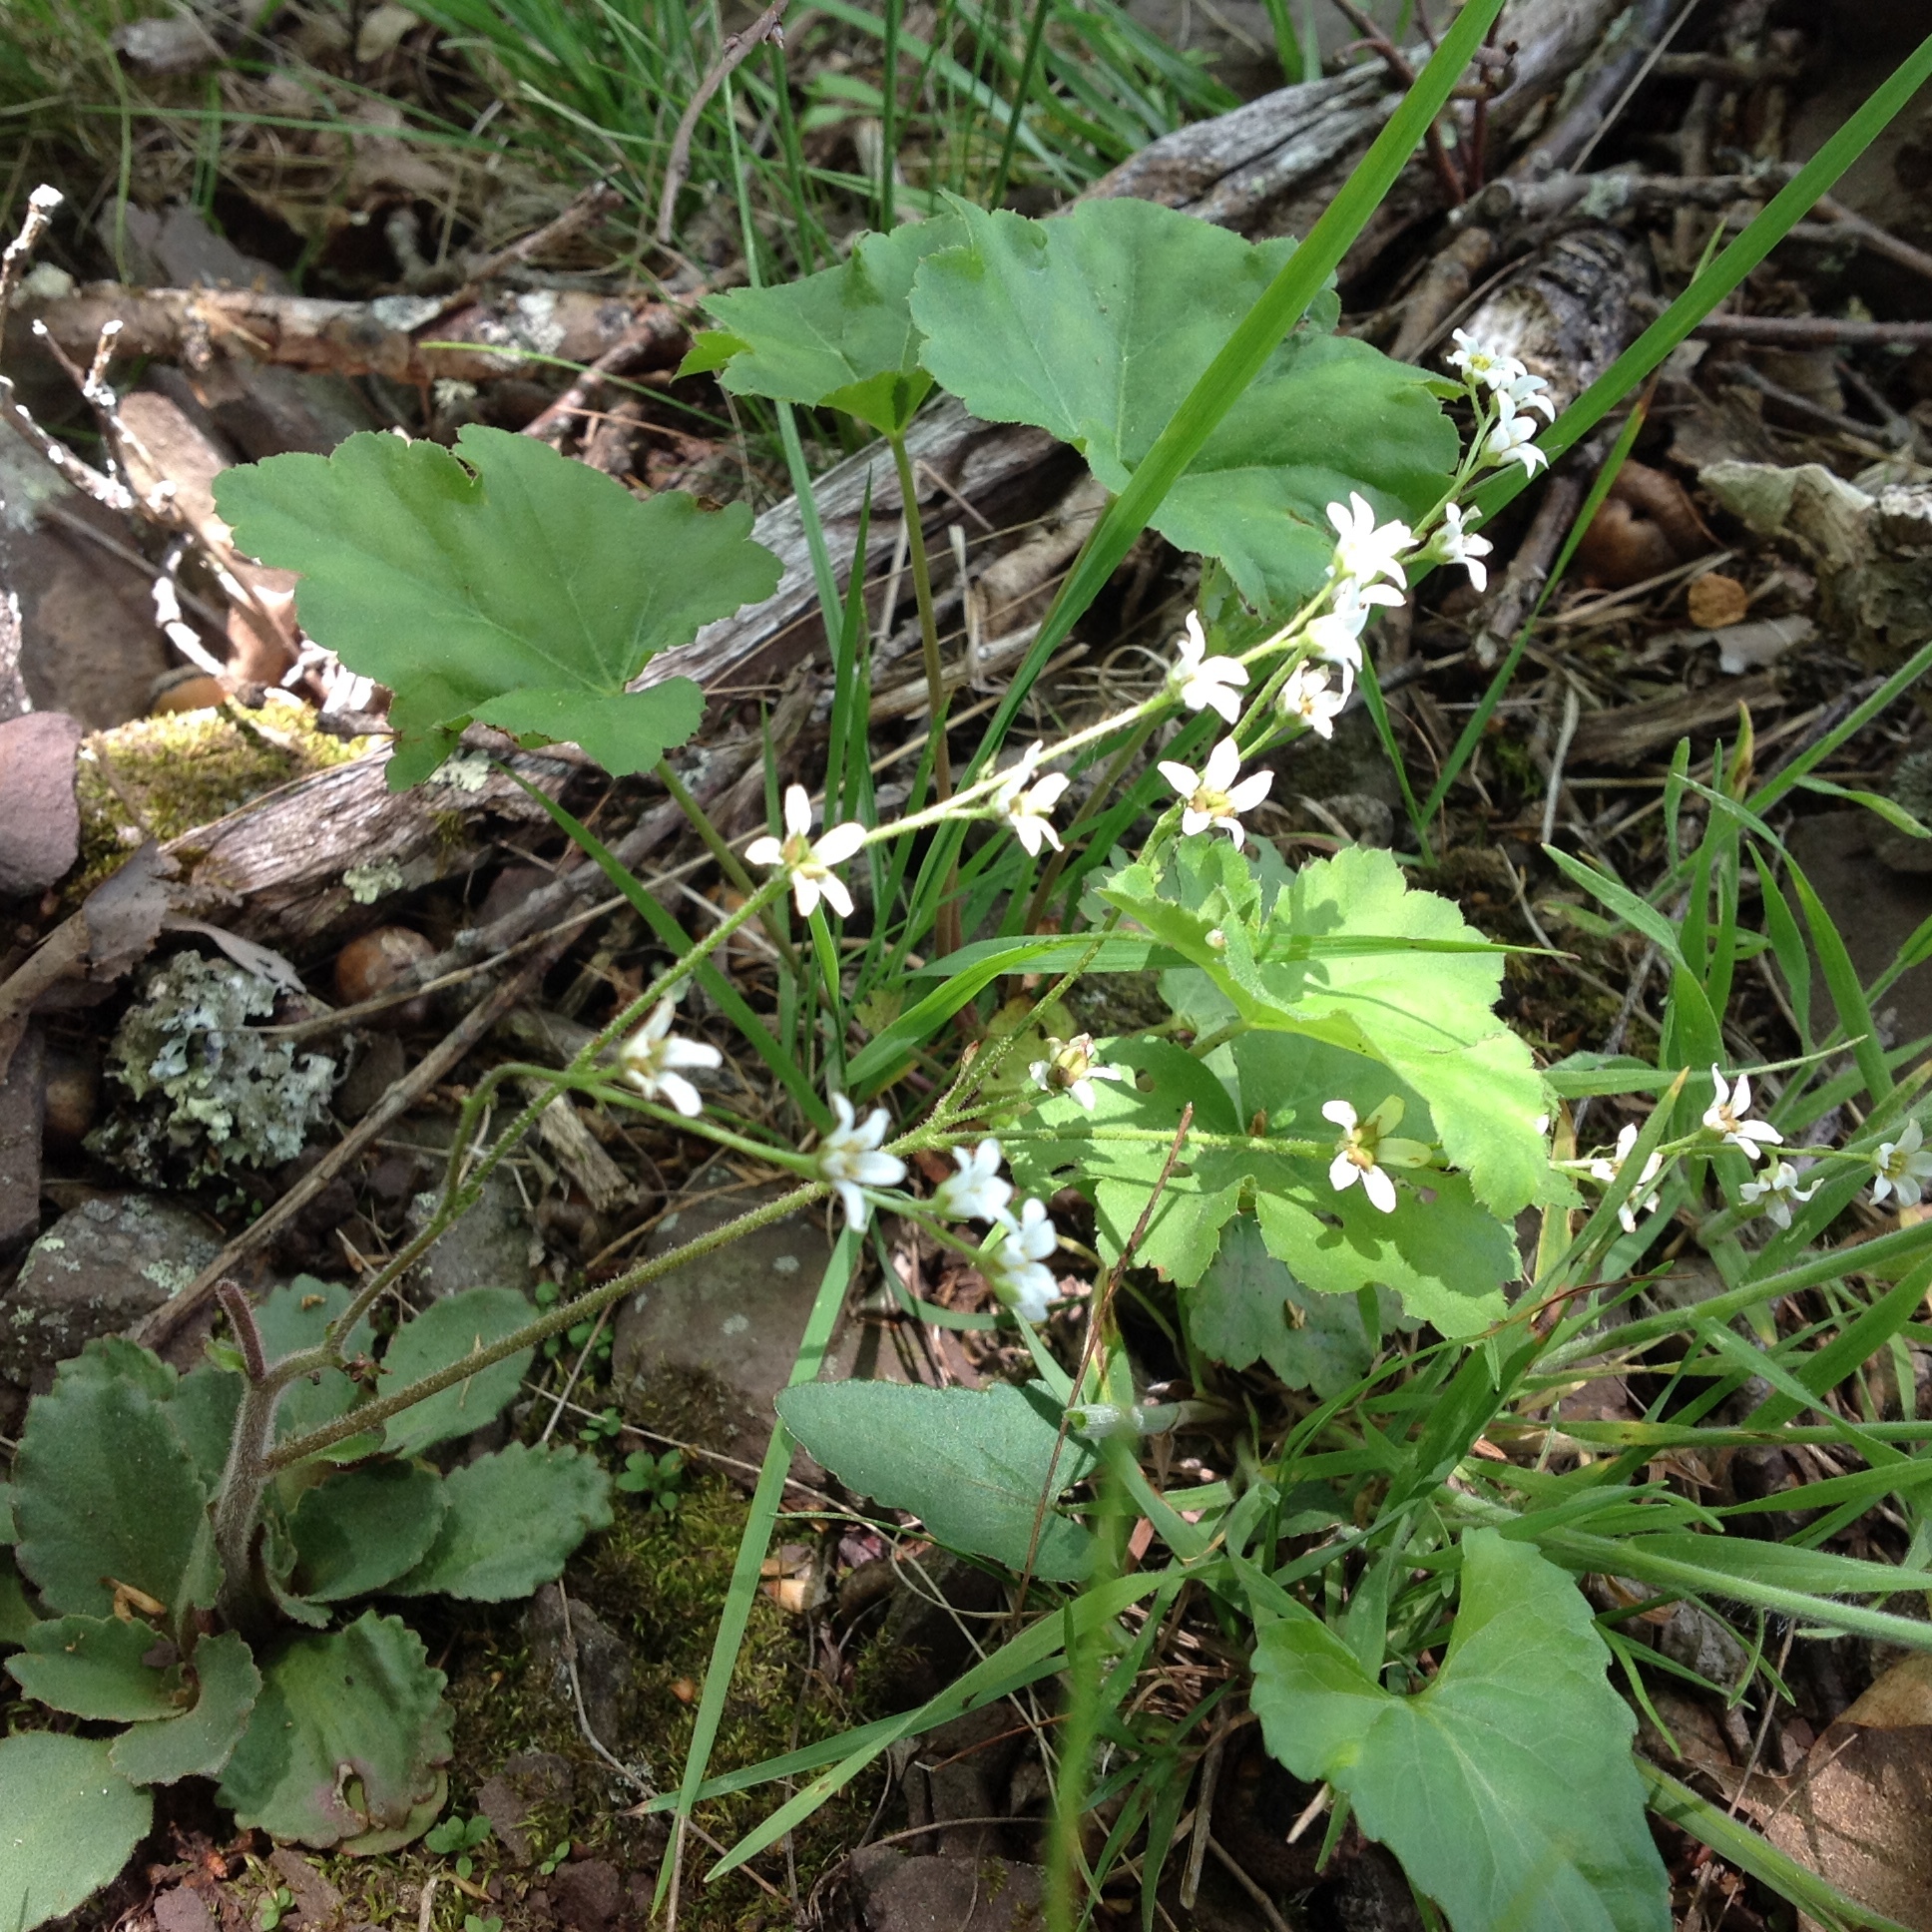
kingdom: Plantae
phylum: Tracheophyta
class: Magnoliopsida
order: Saxifragales
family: Saxifragaceae
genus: Micranthes
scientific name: Micranthes virginiensis
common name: Early saxifrage
